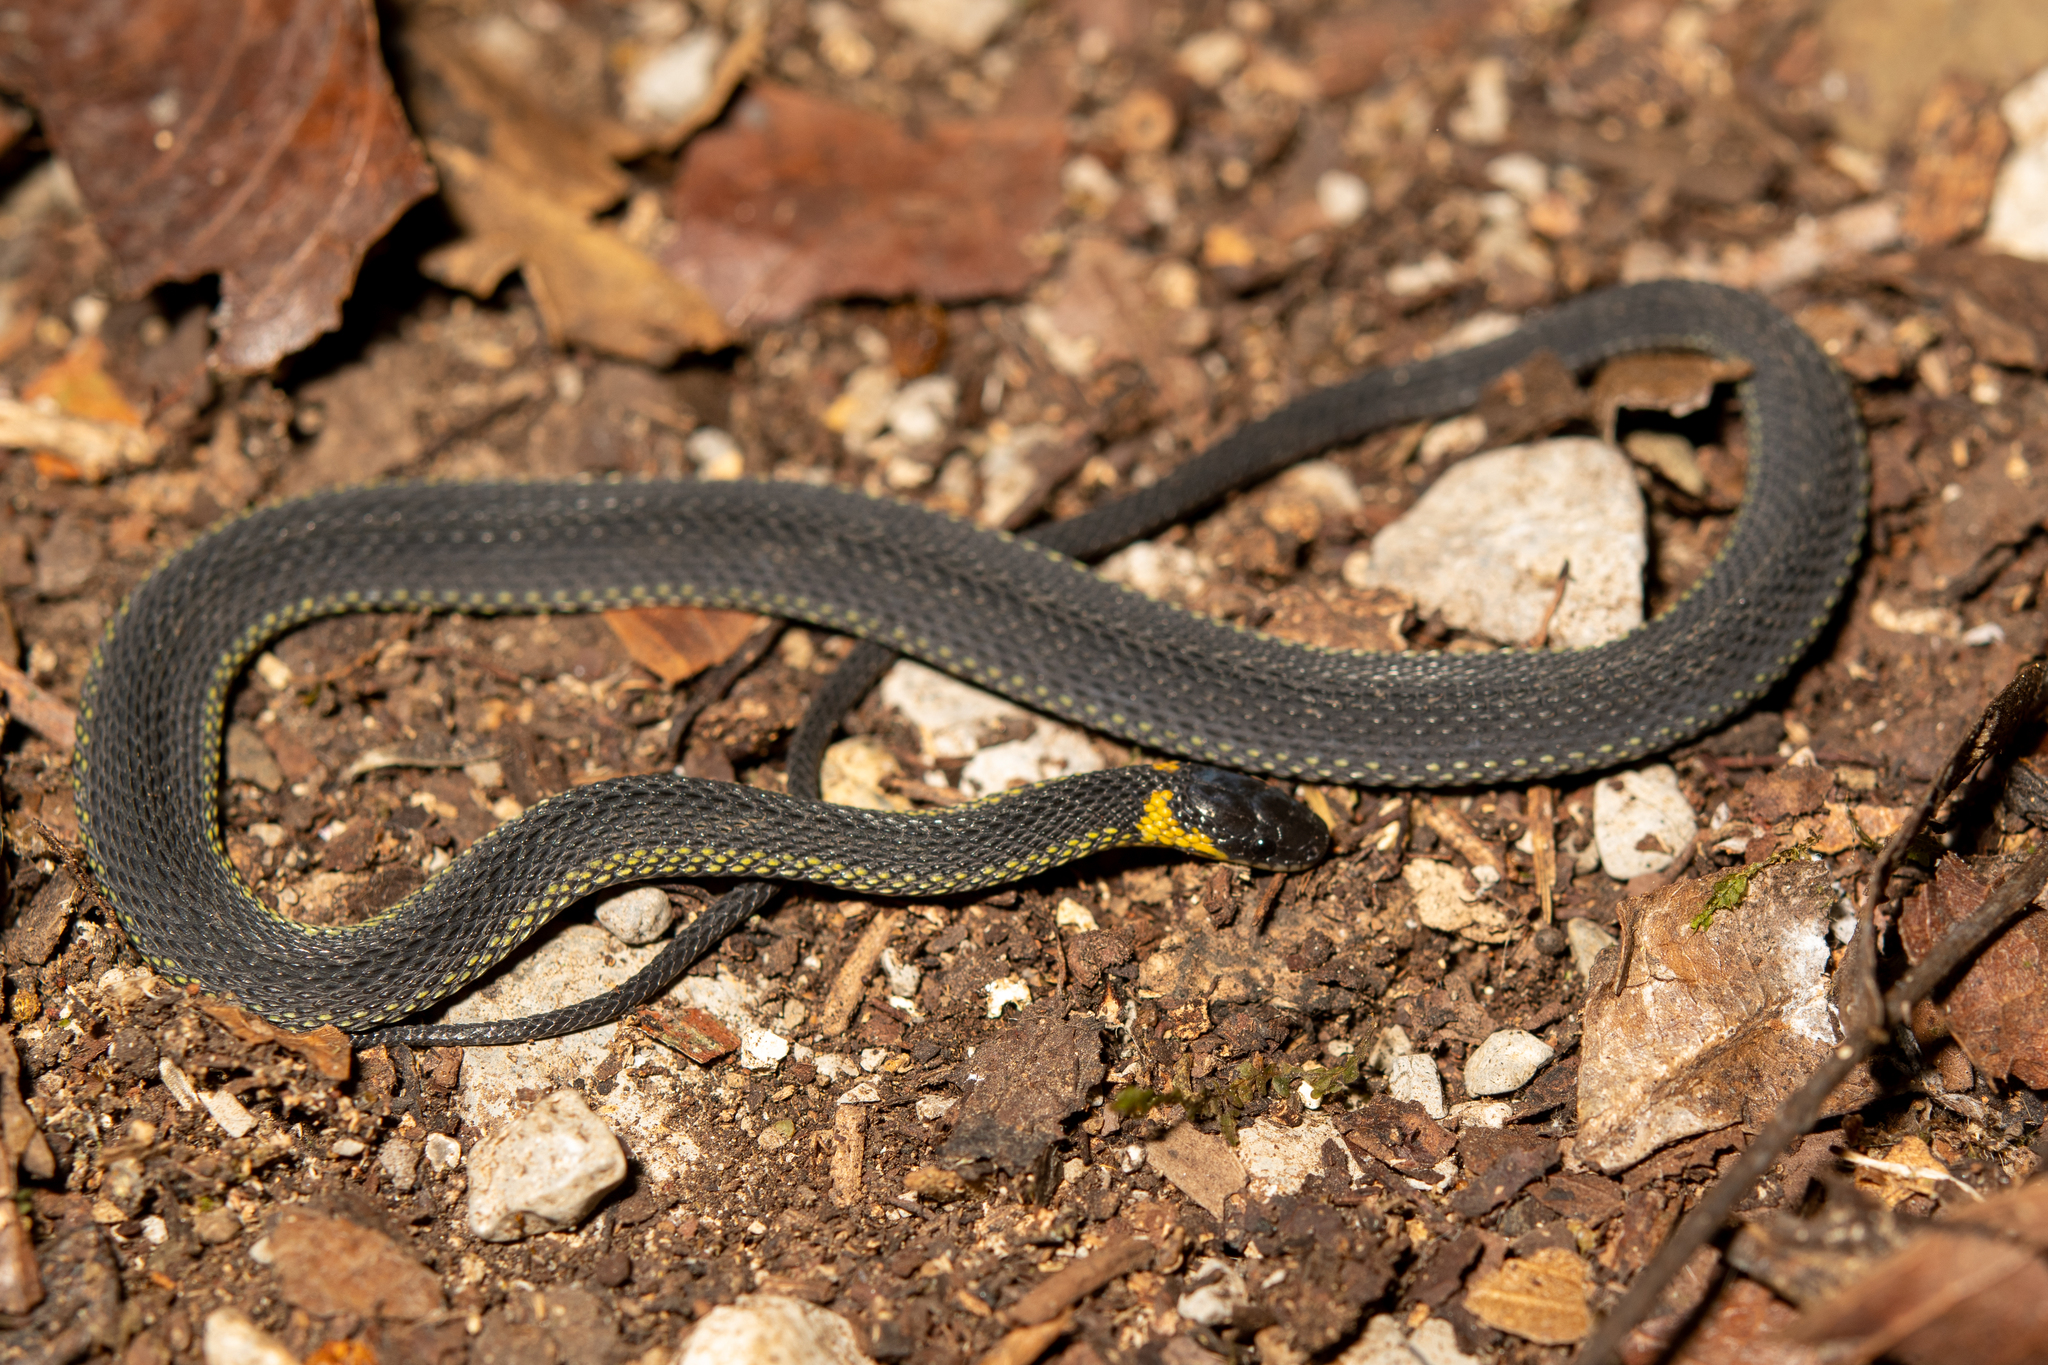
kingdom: Animalia
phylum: Chordata
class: Squamata
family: Colubridae
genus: Ninia
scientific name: Ninia diademata
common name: Ringneck coffee snake
